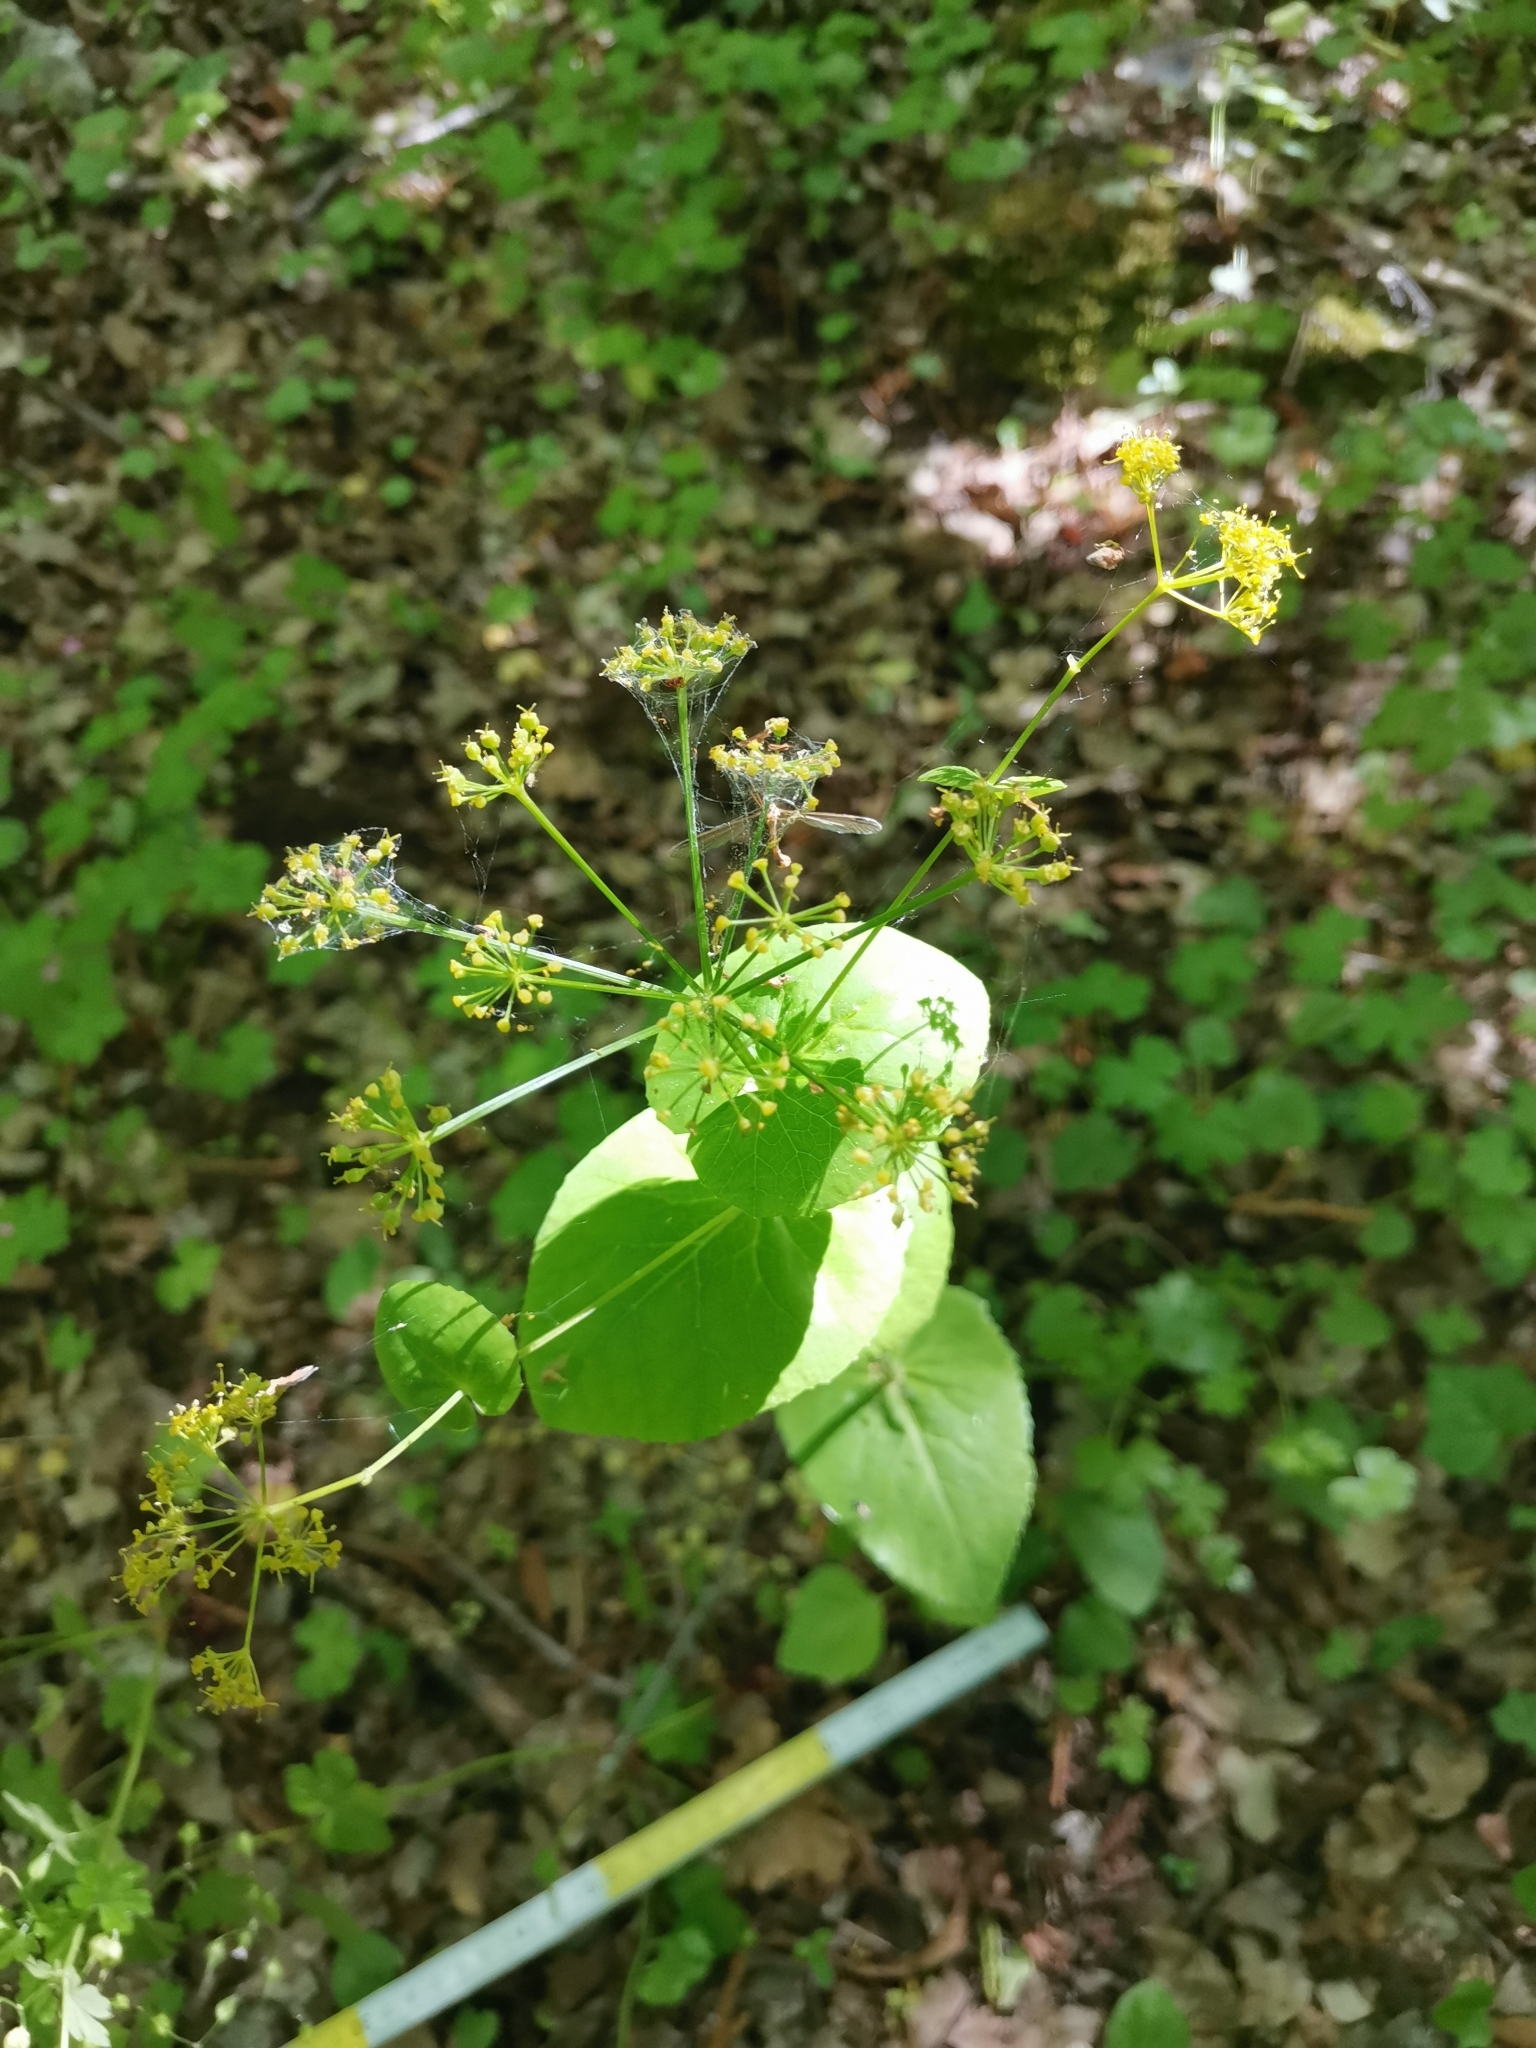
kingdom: Plantae
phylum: Tracheophyta
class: Magnoliopsida
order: Apiales
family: Apiaceae
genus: Smyrnium
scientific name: Smyrnium perfoliatum
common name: Perfoliate alexanders
